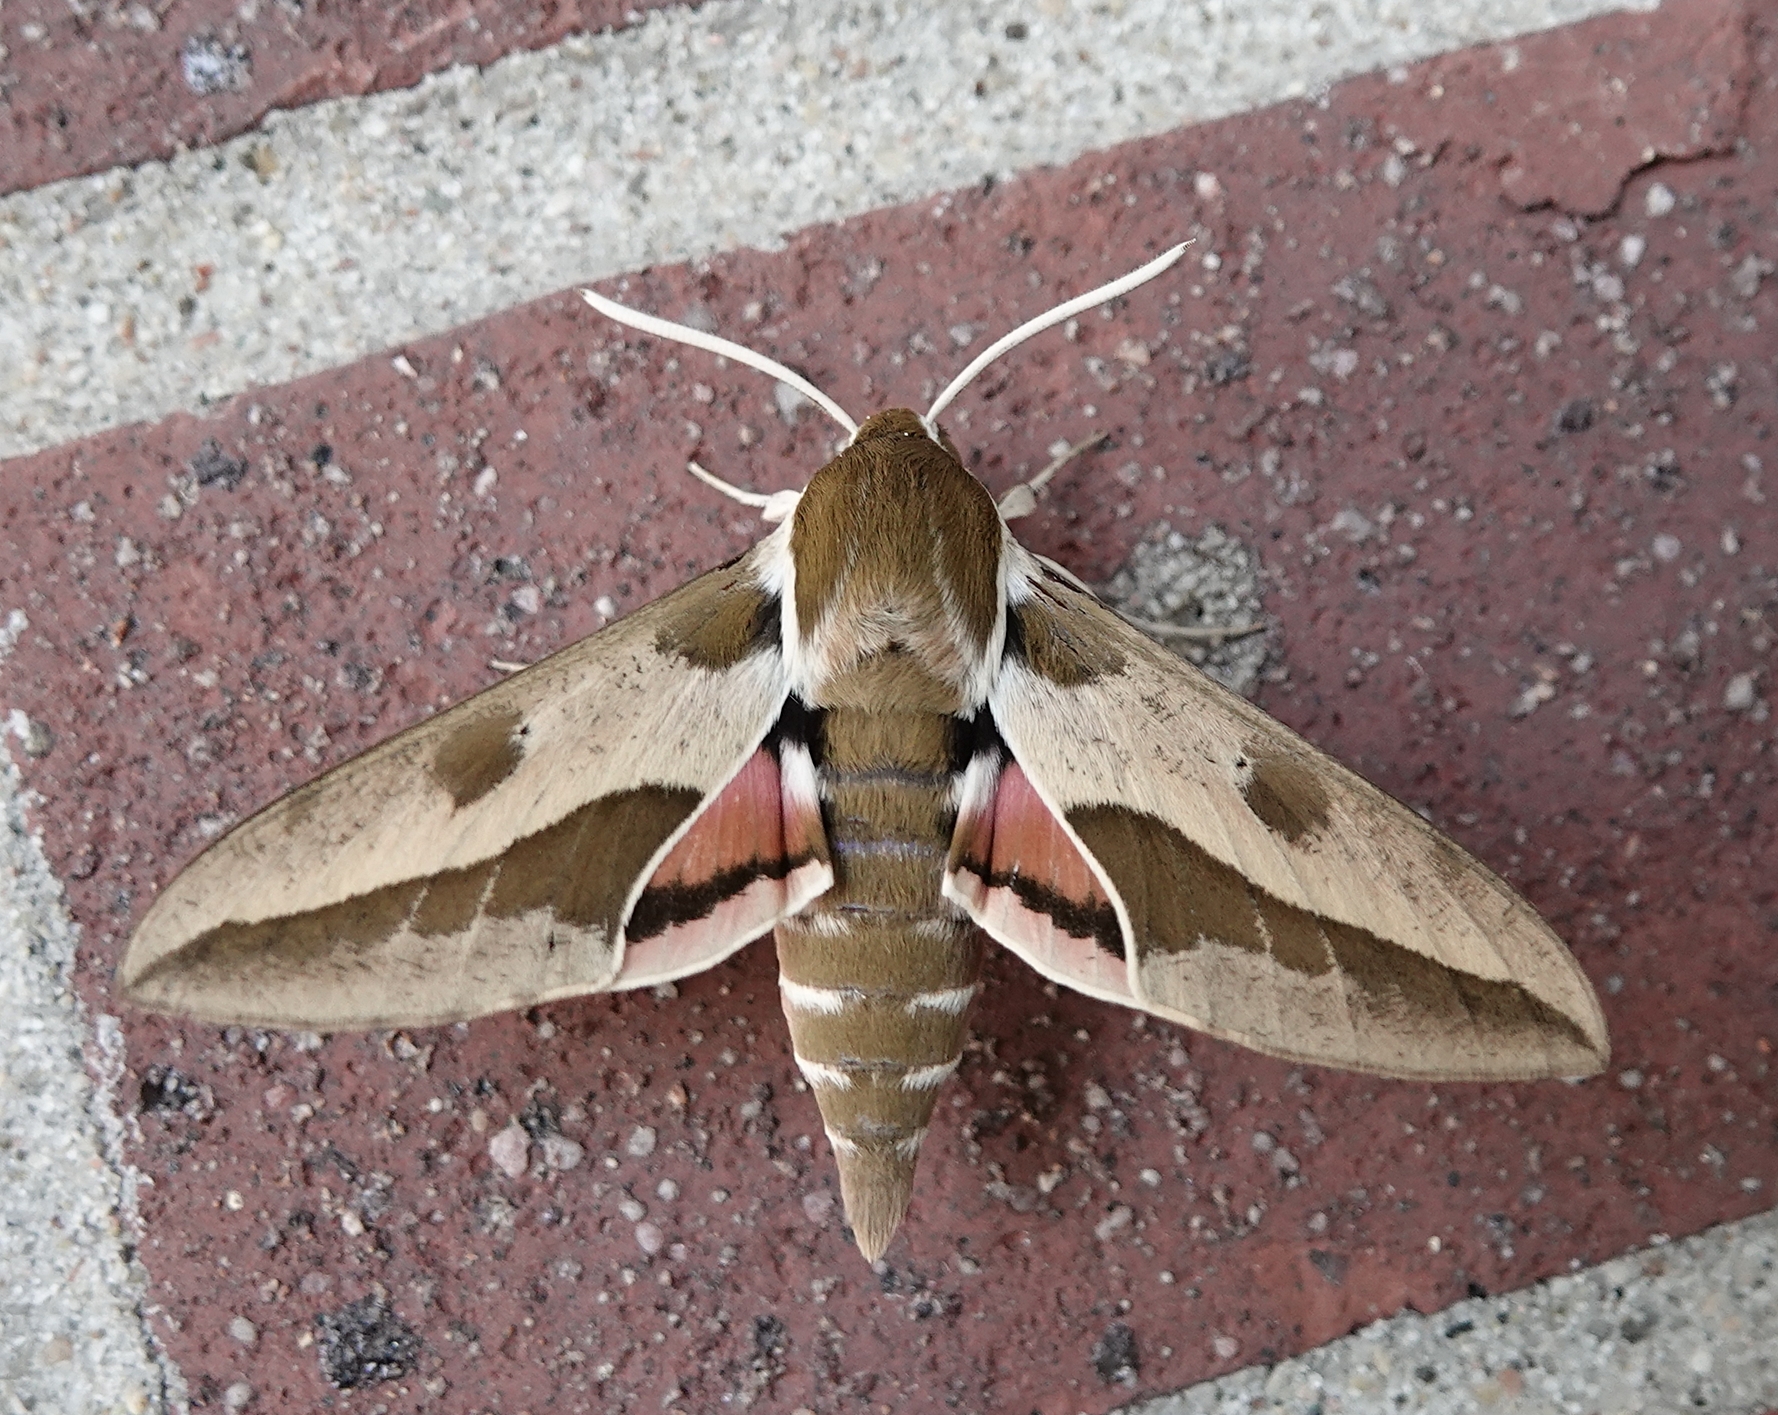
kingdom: Animalia
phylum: Arthropoda
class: Insecta
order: Lepidoptera
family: Sphingidae
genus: Hyles
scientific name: Hyles euphorbiae
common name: Spurge hawk-moth
